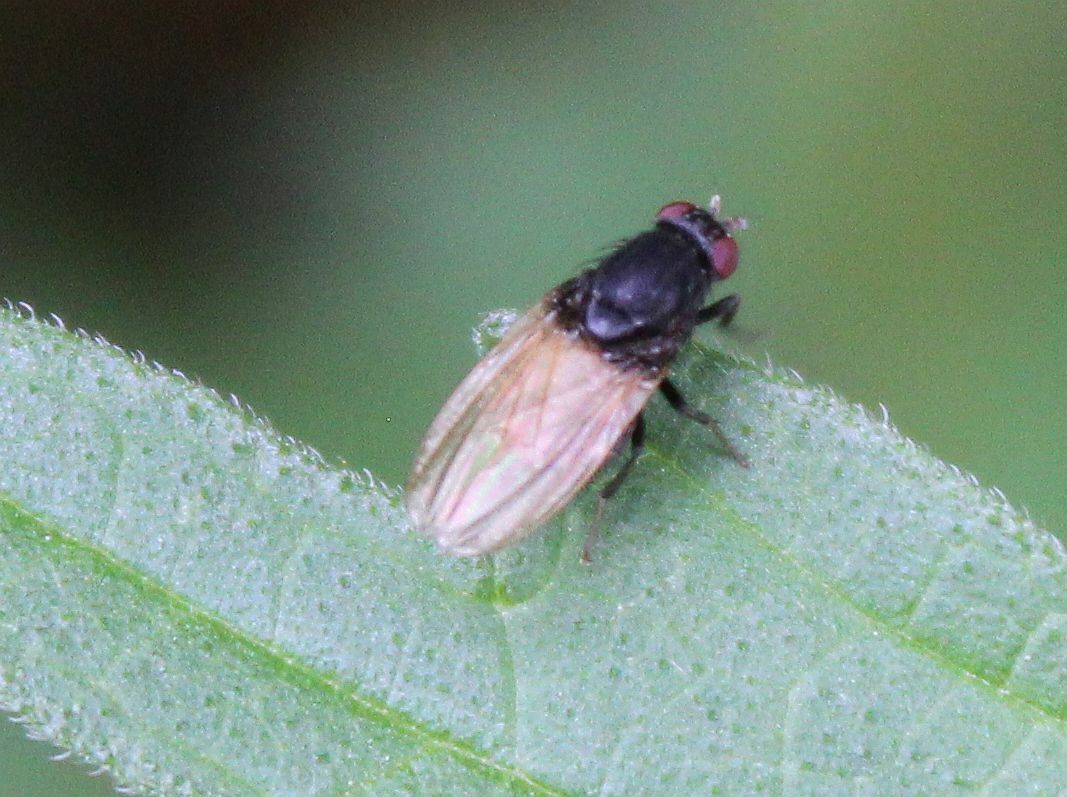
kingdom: Animalia
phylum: Arthropoda
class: Insecta
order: Diptera
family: Lauxaniidae
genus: Minettia
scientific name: Minettia longipennis
